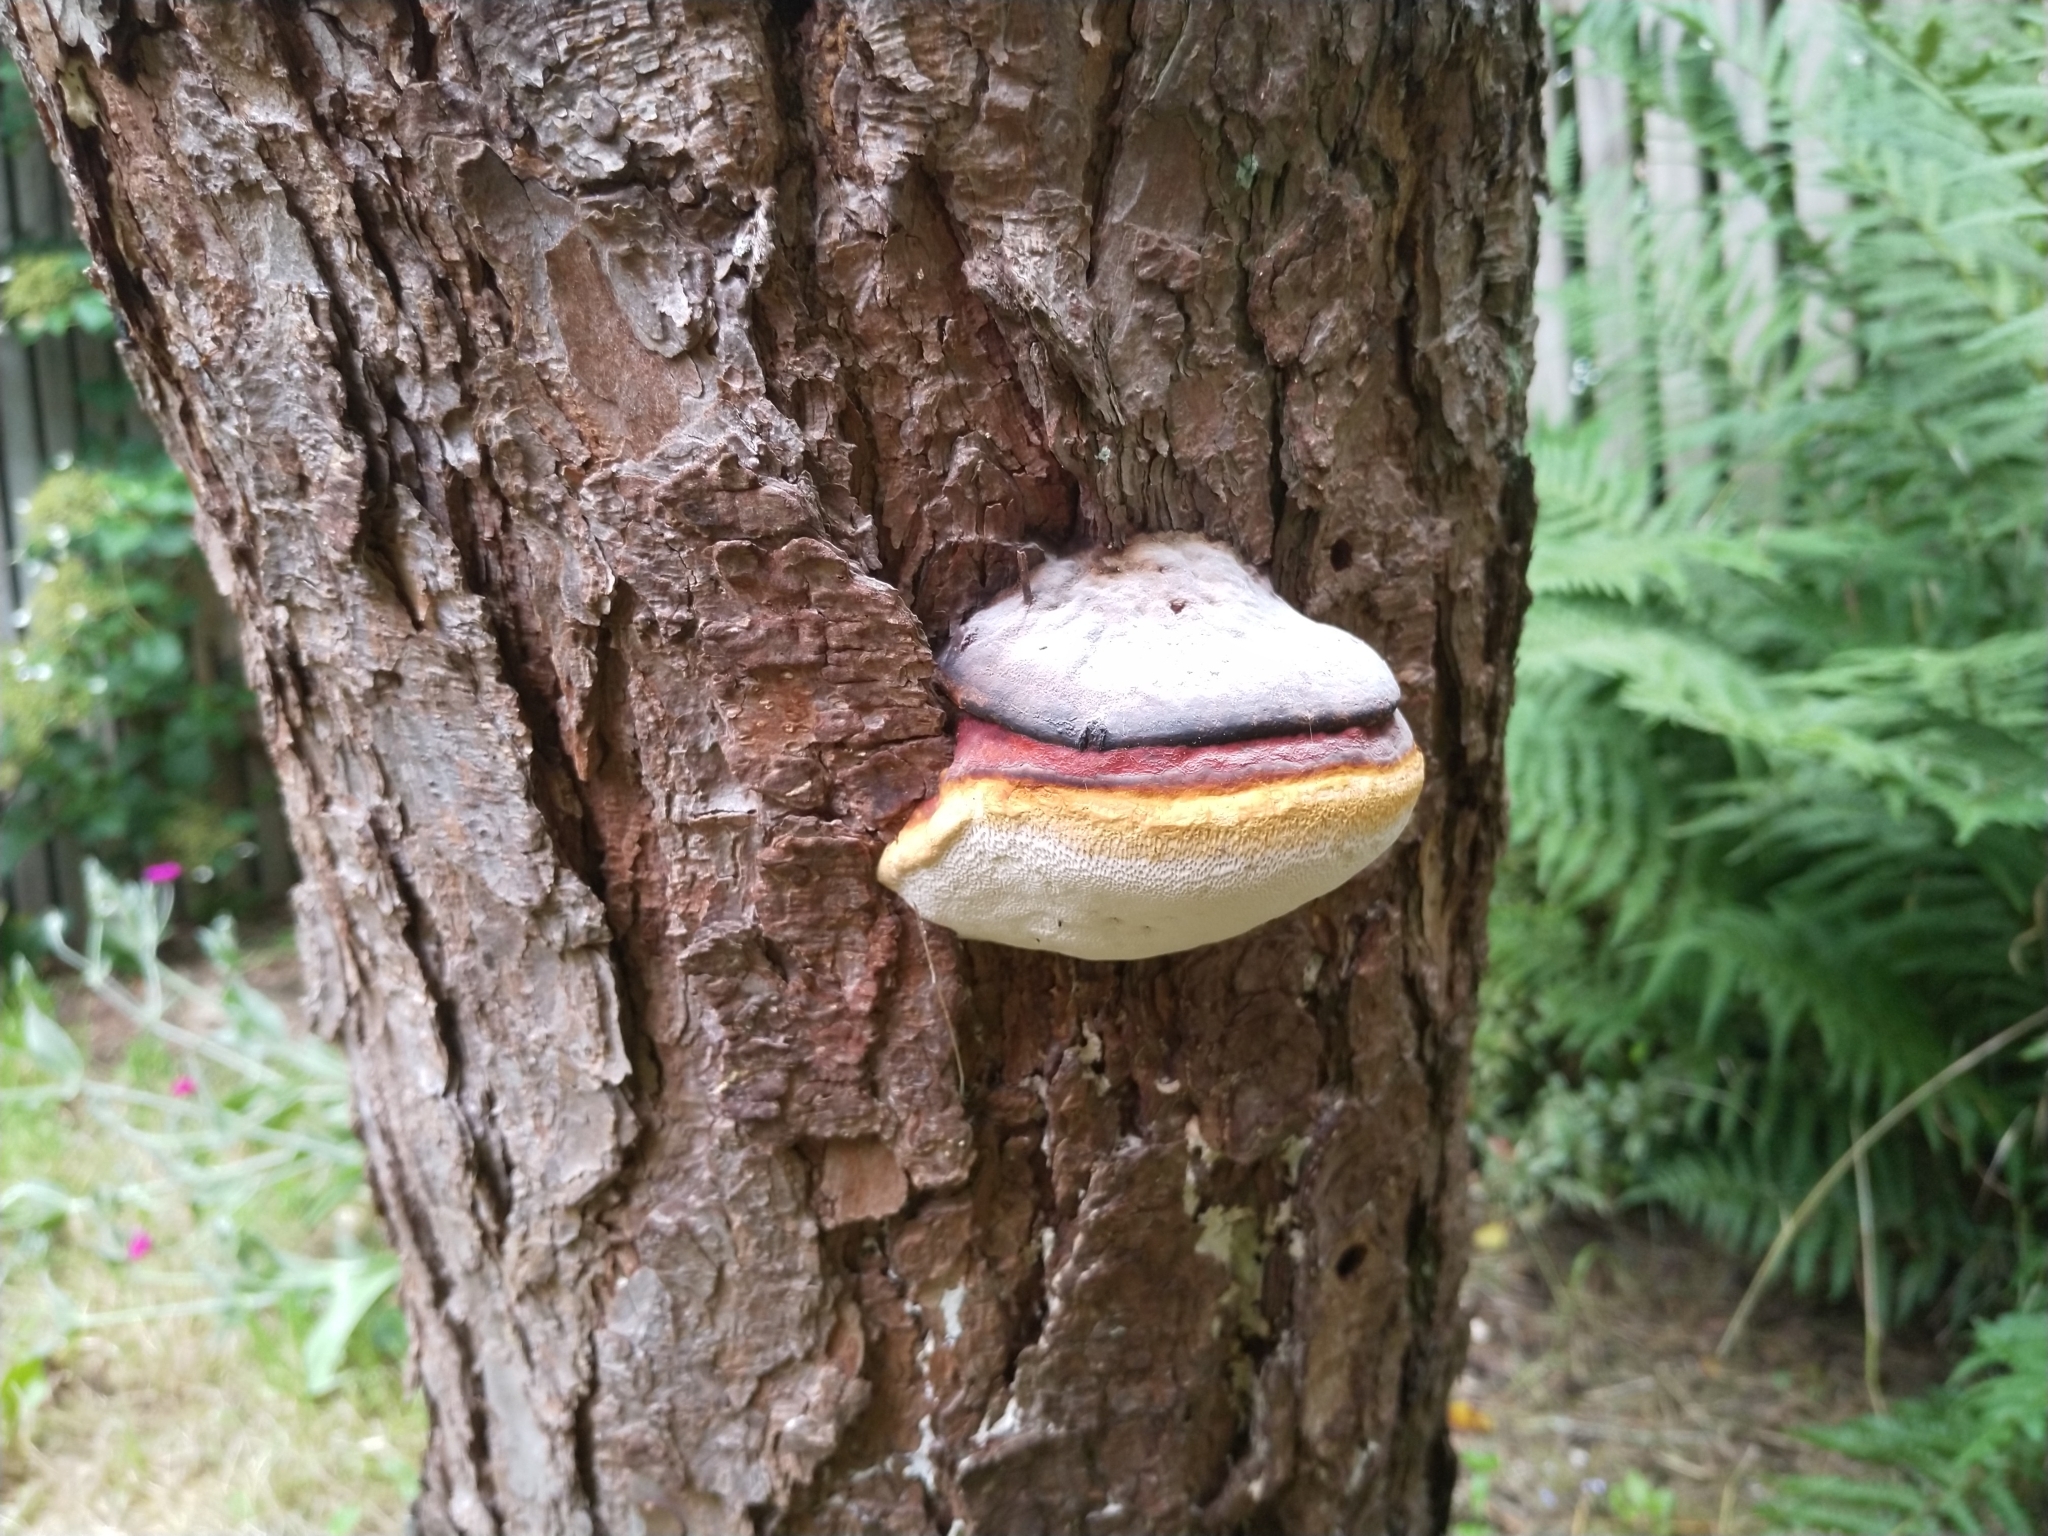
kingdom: Fungi
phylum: Basidiomycota
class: Agaricomycetes
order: Polyporales
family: Fomitopsidaceae
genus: Fomitopsis
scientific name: Fomitopsis pinicola
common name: Red-belted bracket
